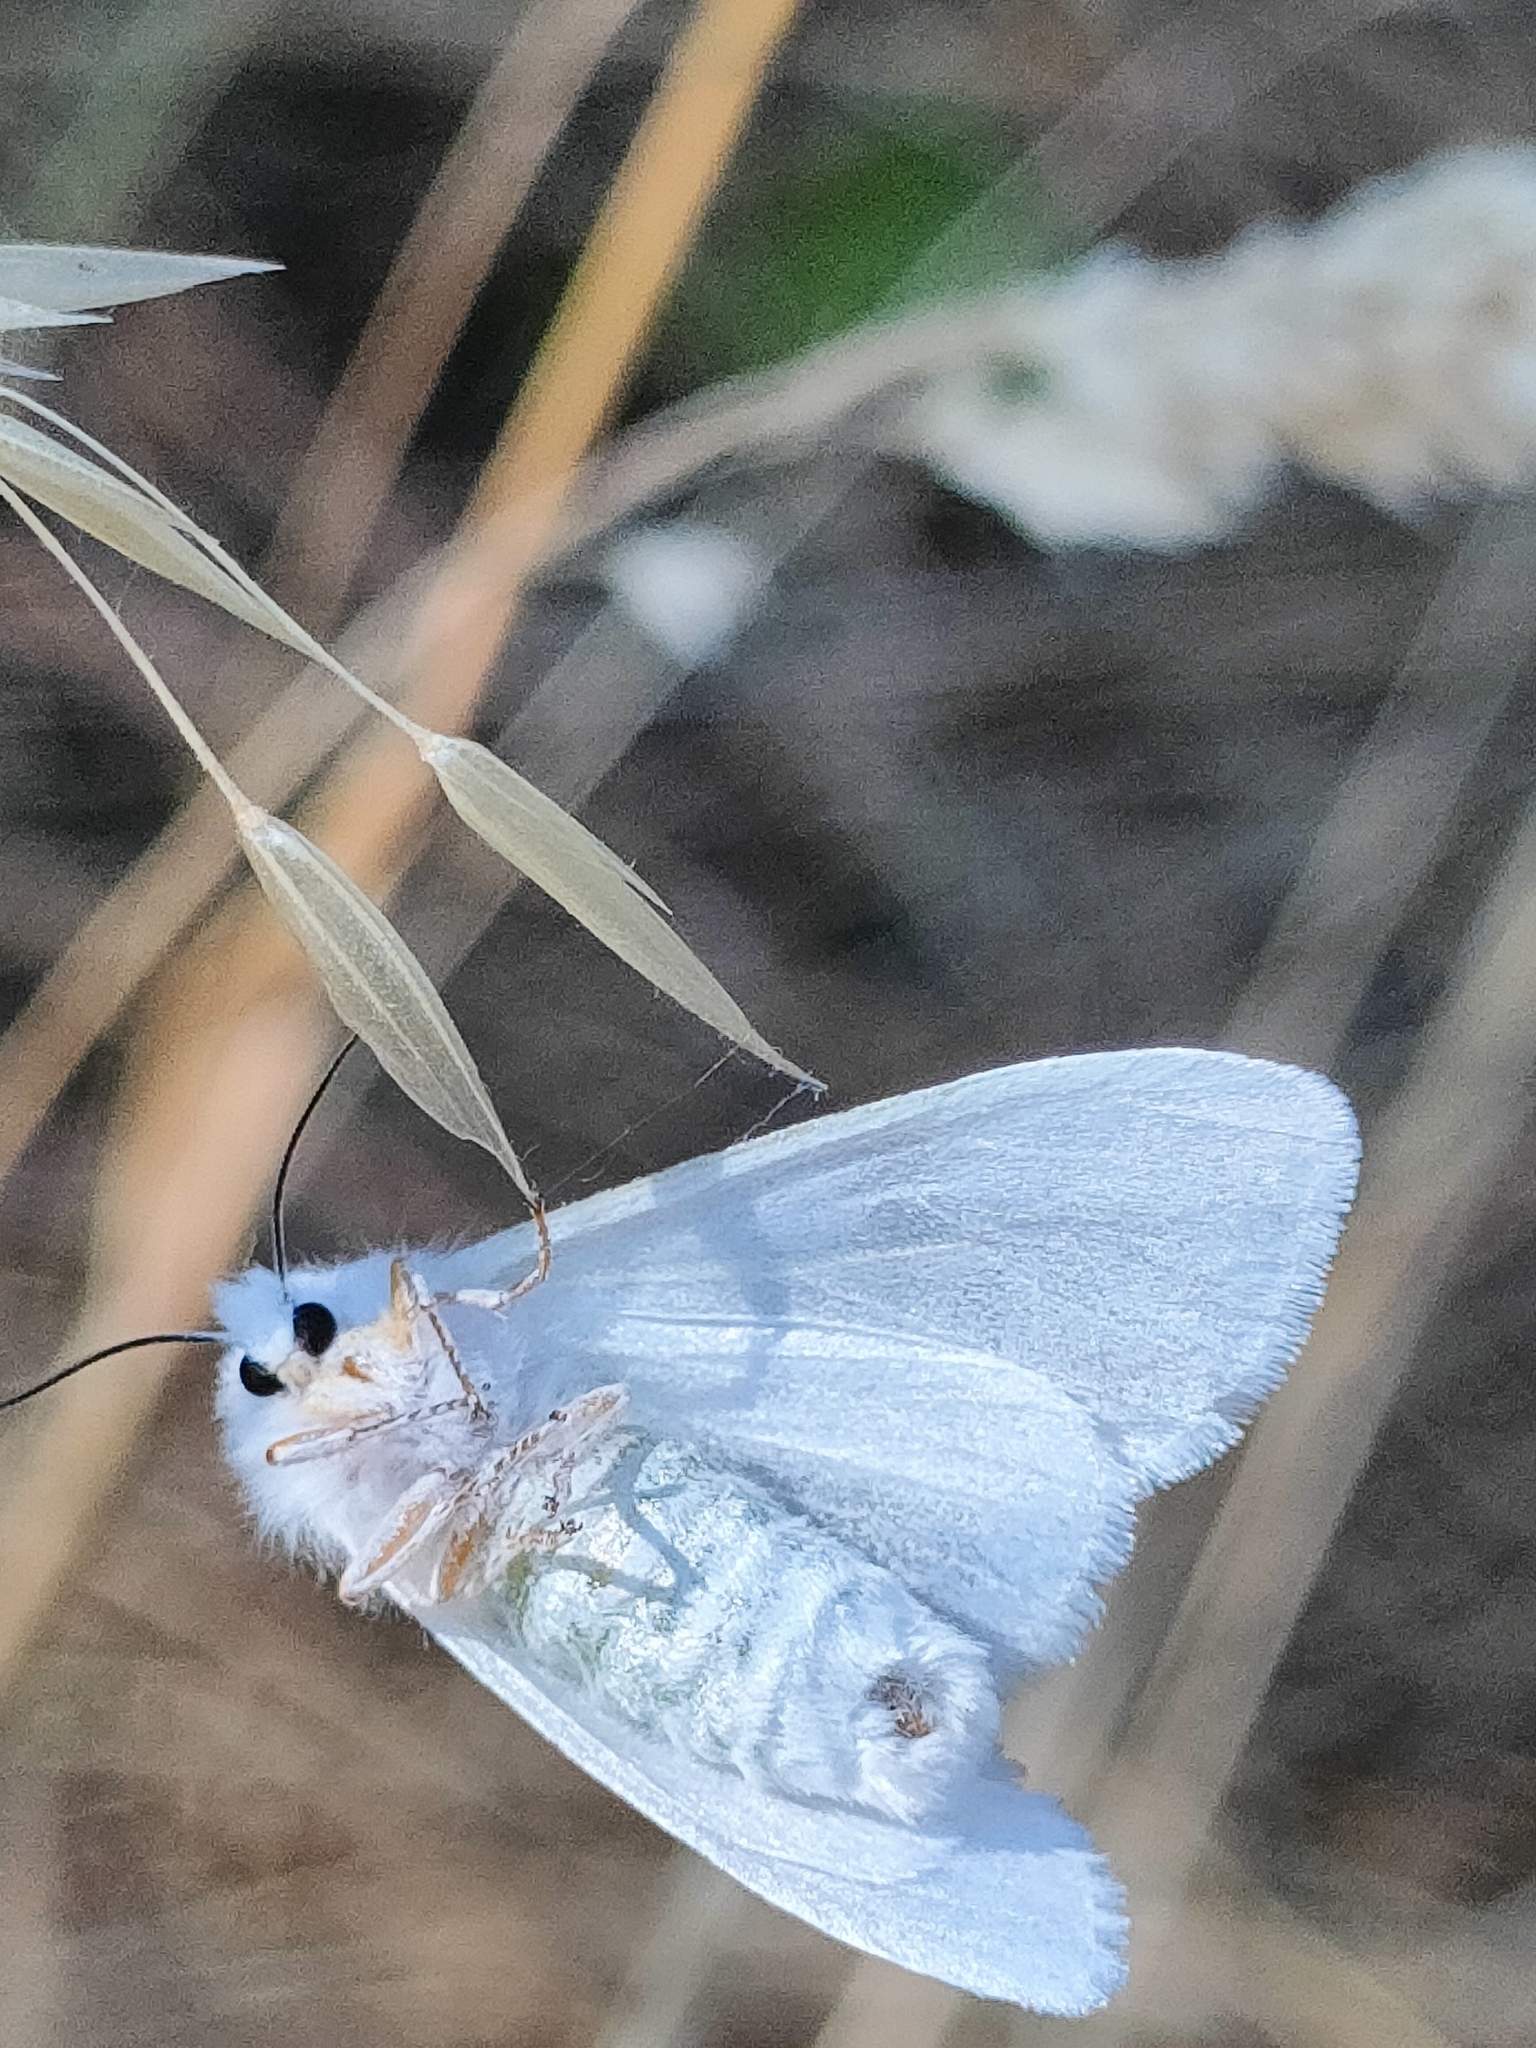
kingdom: Animalia
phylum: Arthropoda
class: Insecta
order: Lepidoptera
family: Erebidae
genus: Hyphantria
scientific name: Hyphantria cunea
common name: American white moth
